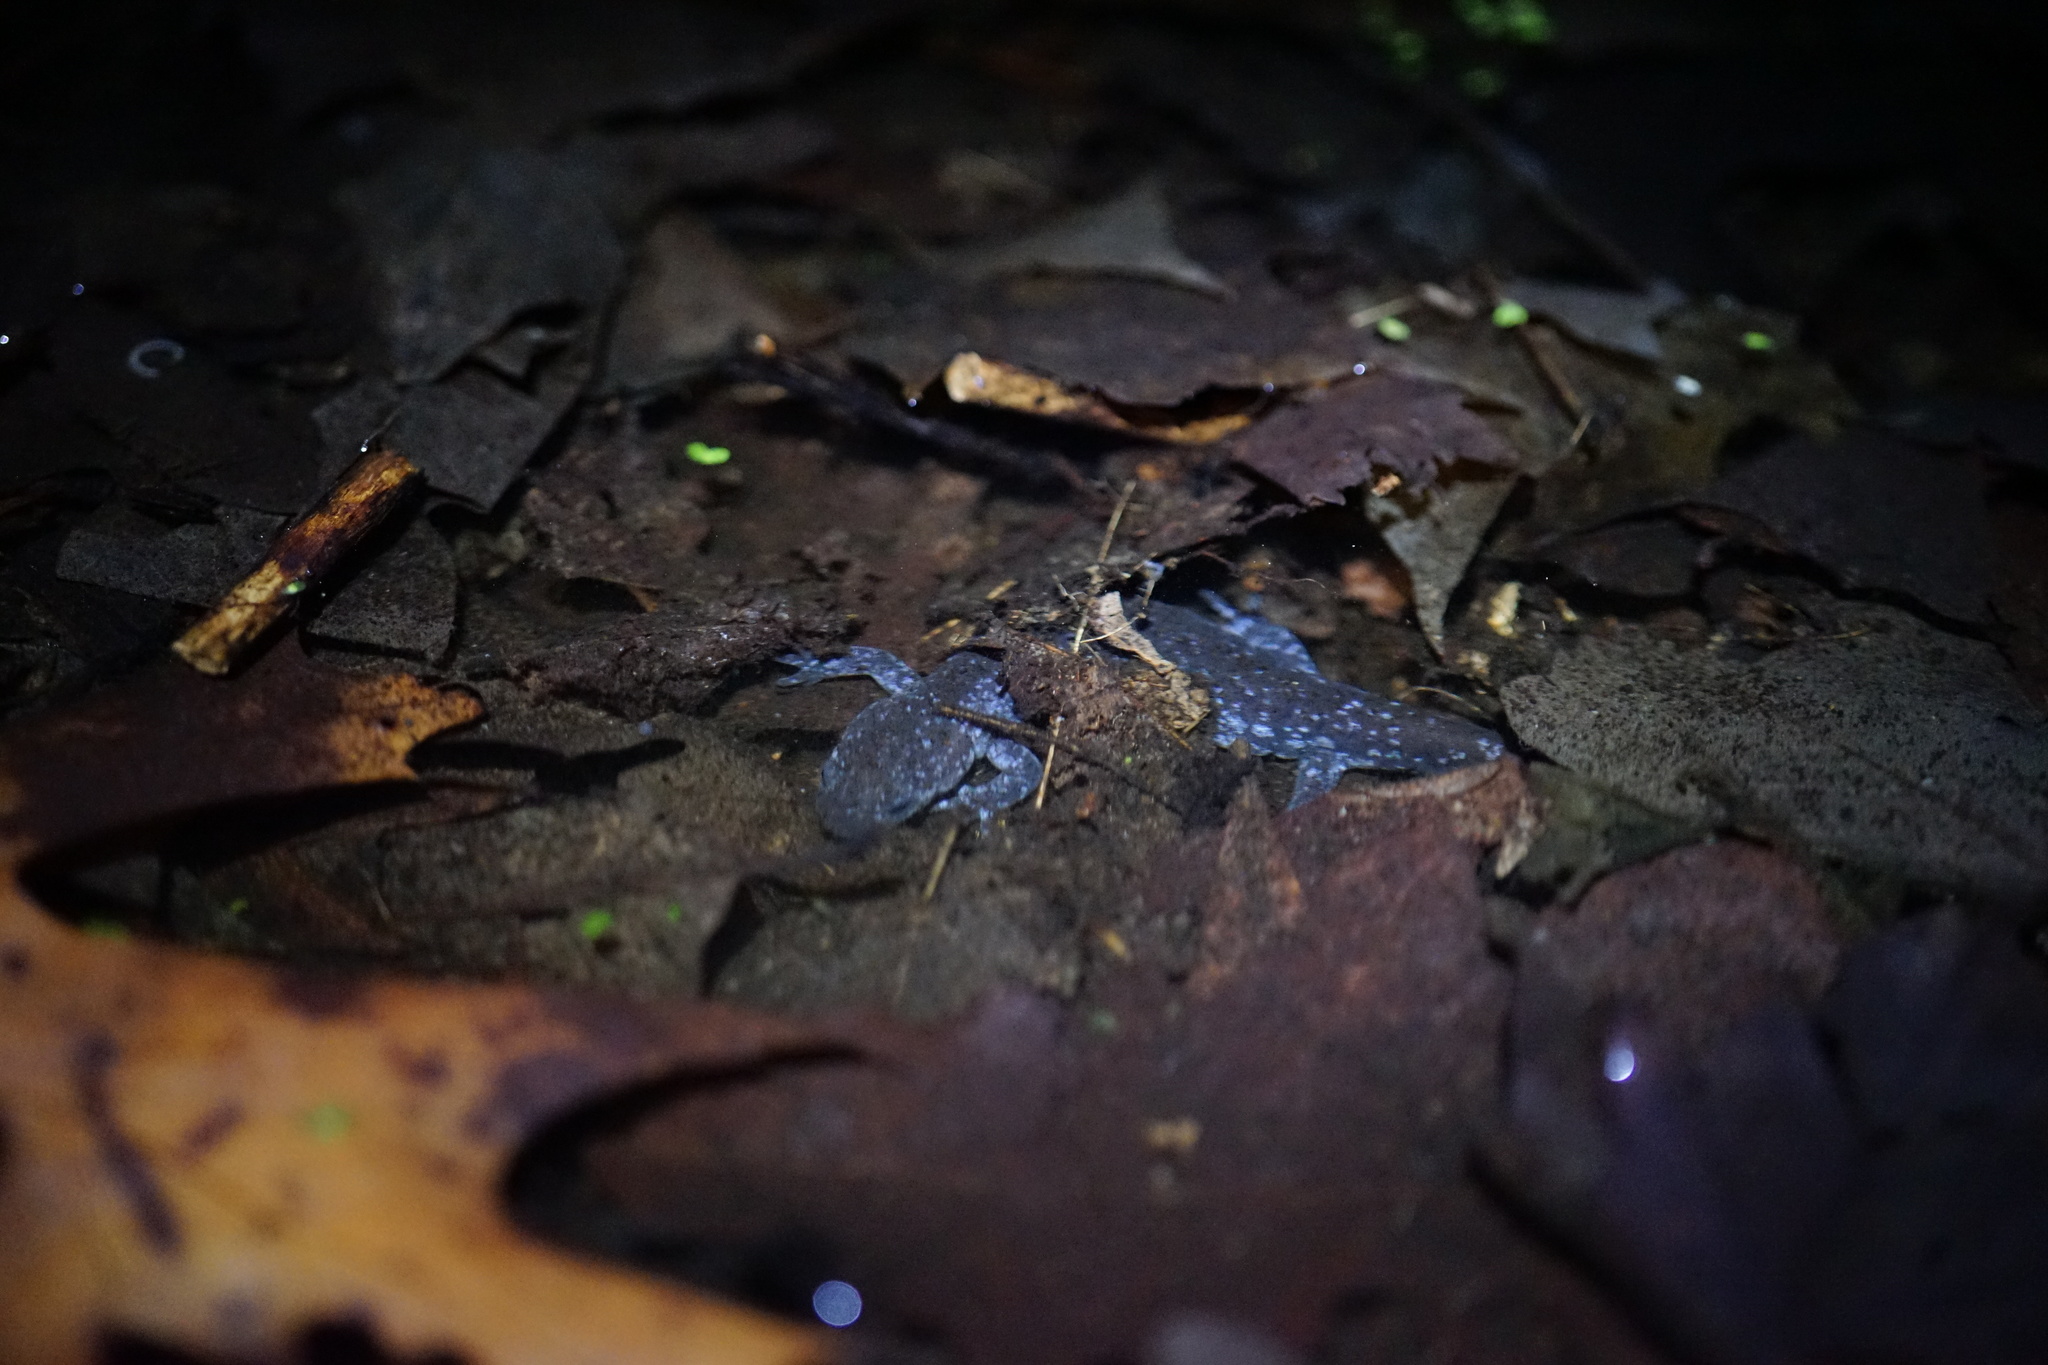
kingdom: Animalia
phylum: Chordata
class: Amphibia
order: Caudata
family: Ambystomatidae
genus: Ambystoma
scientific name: Ambystoma laterale
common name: Blue-spotted salamander
